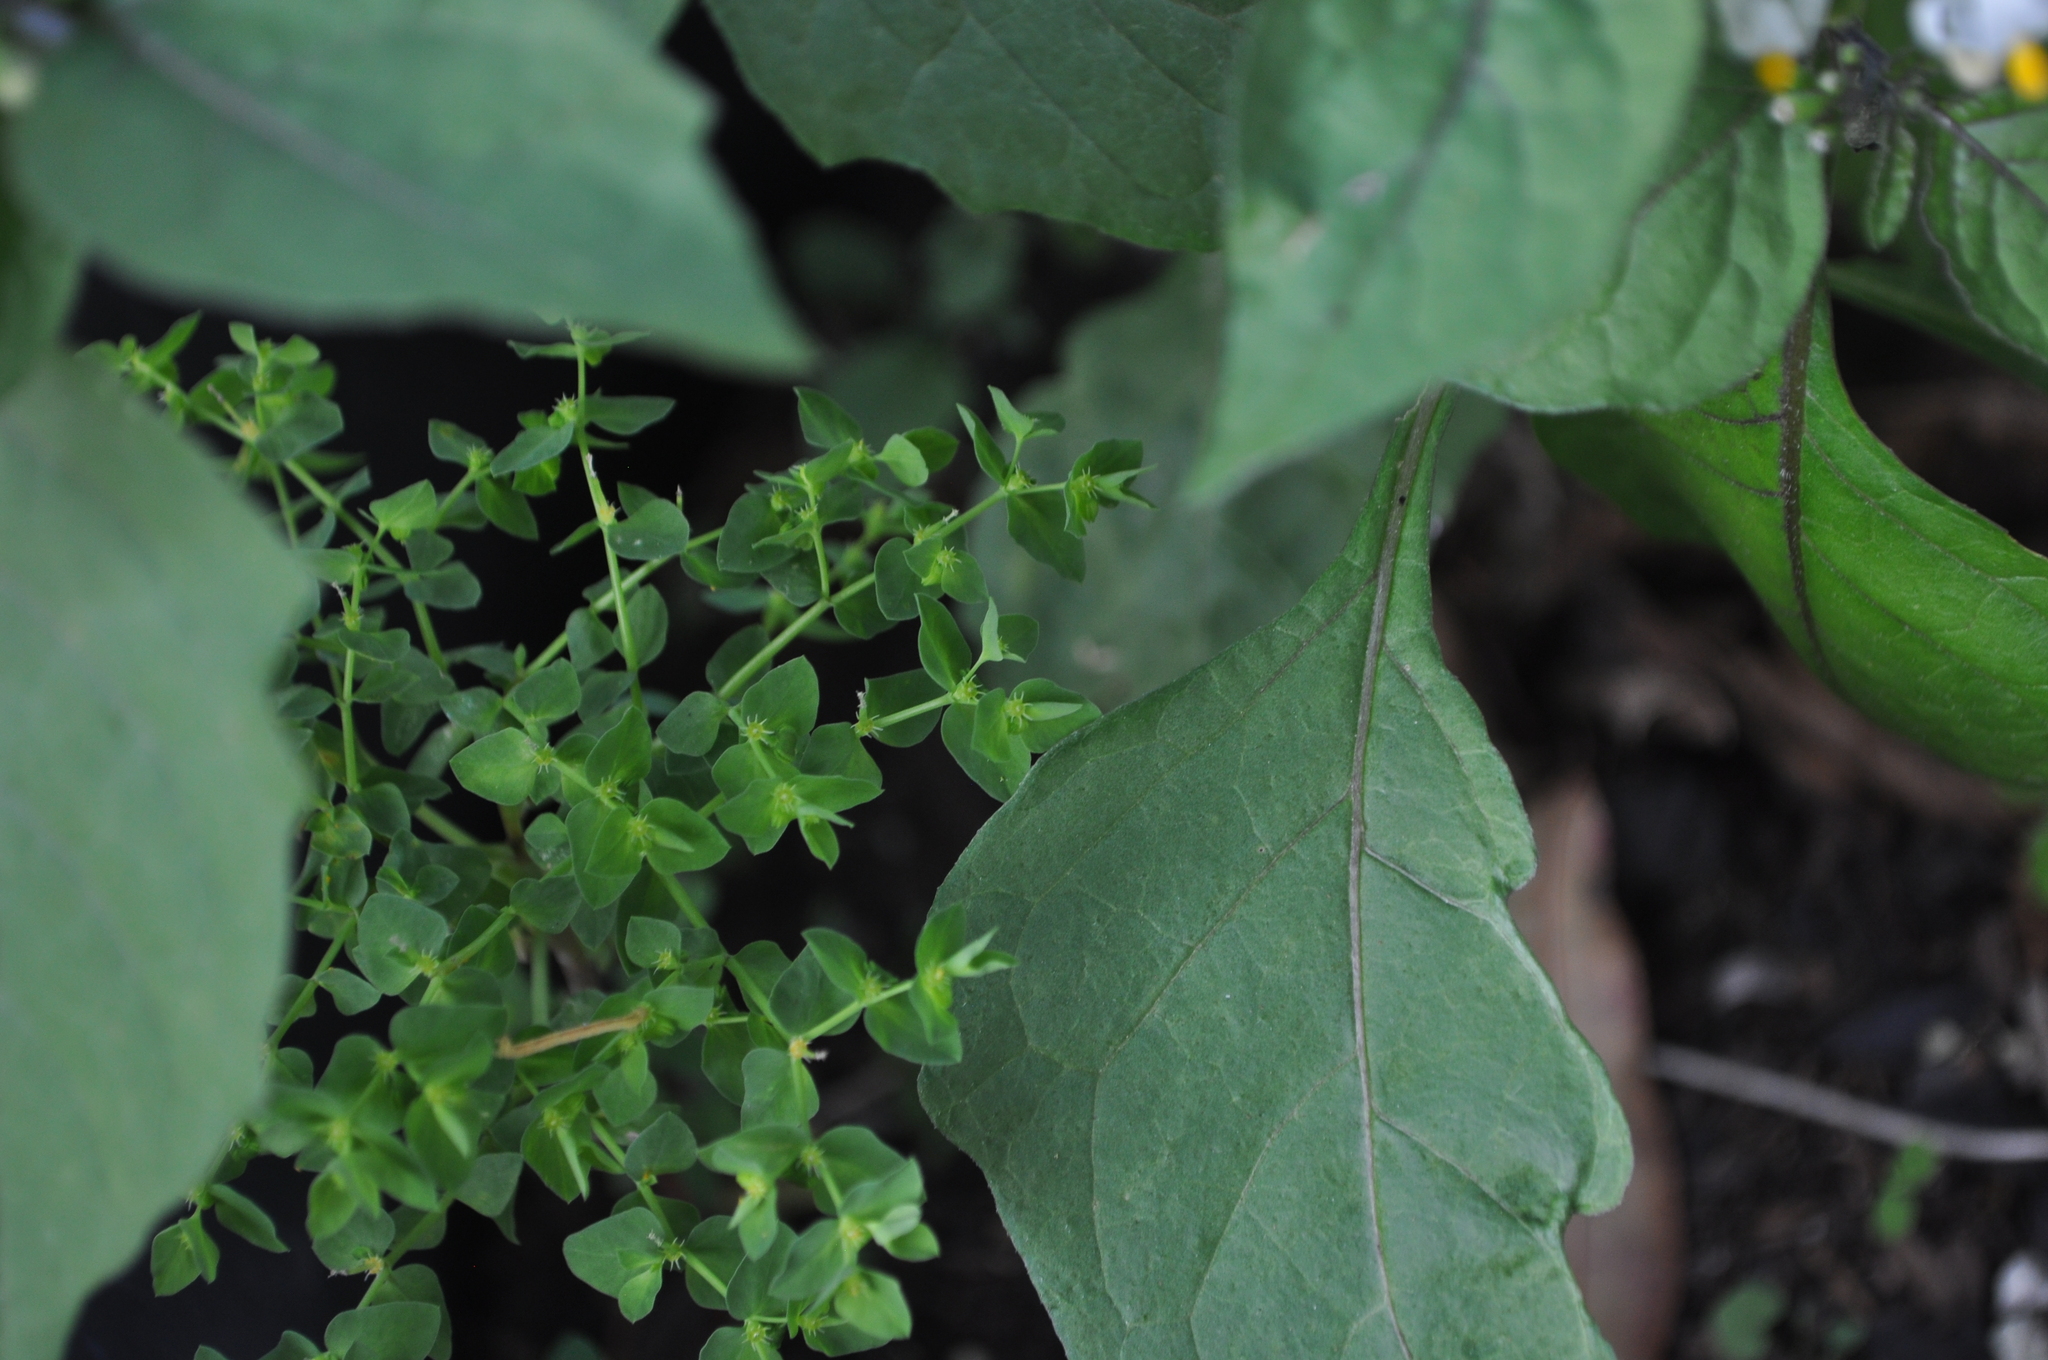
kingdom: Plantae
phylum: Tracheophyta
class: Magnoliopsida
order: Malpighiales
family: Euphorbiaceae
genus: Euphorbia
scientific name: Euphorbia peplus
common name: Petty spurge
